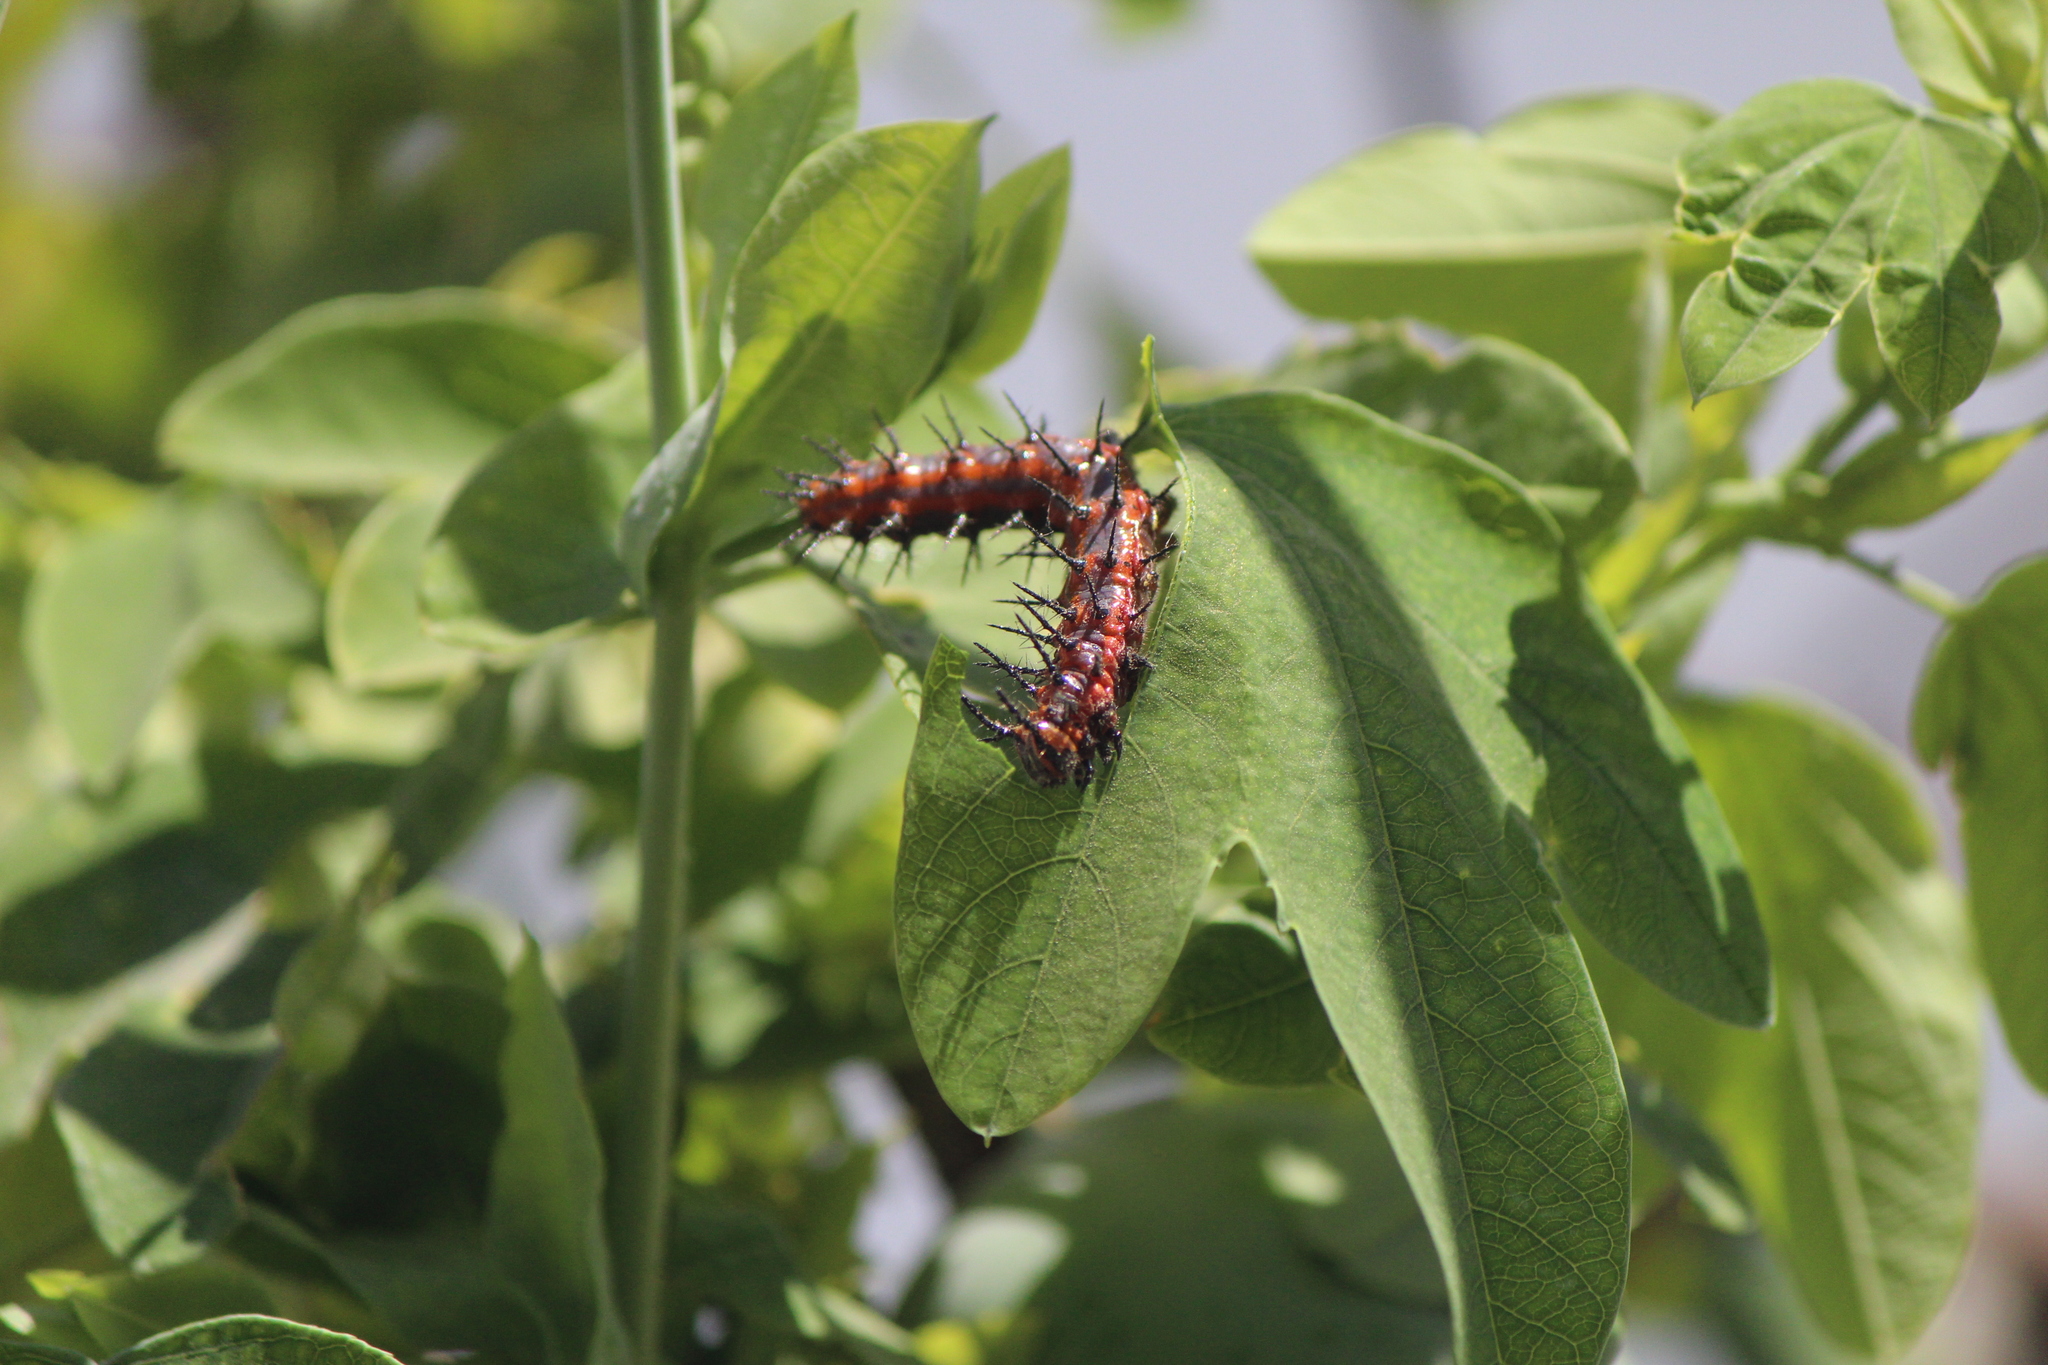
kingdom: Animalia
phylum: Arthropoda
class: Insecta
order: Lepidoptera
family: Nymphalidae
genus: Dione
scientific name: Dione vanillae
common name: Gulf fritillary
